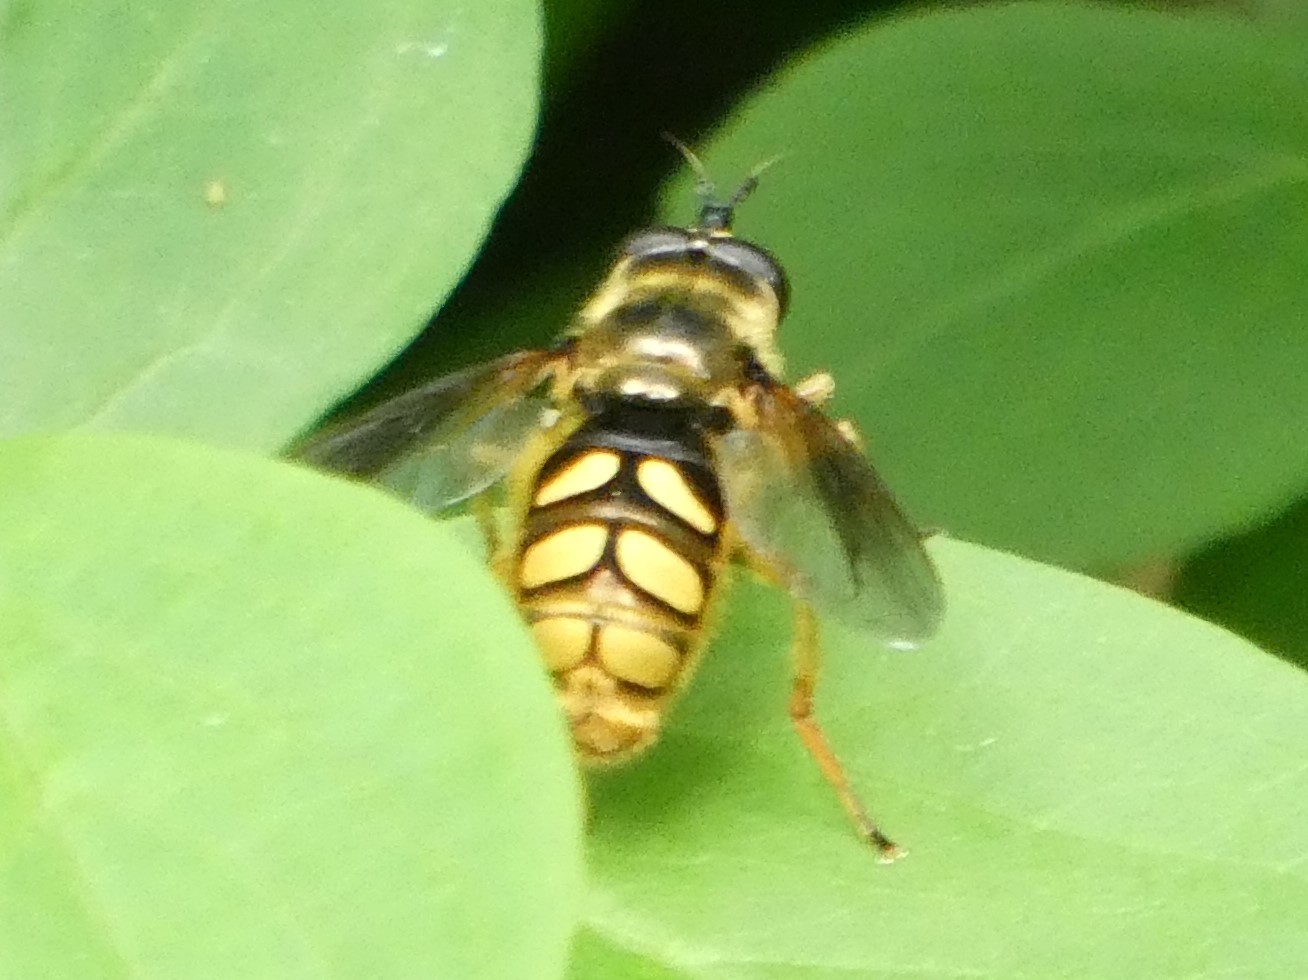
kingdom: Animalia
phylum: Arthropoda
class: Insecta
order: Diptera
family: Syrphidae
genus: Somula
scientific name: Somula decora
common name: Spotted wood fly
